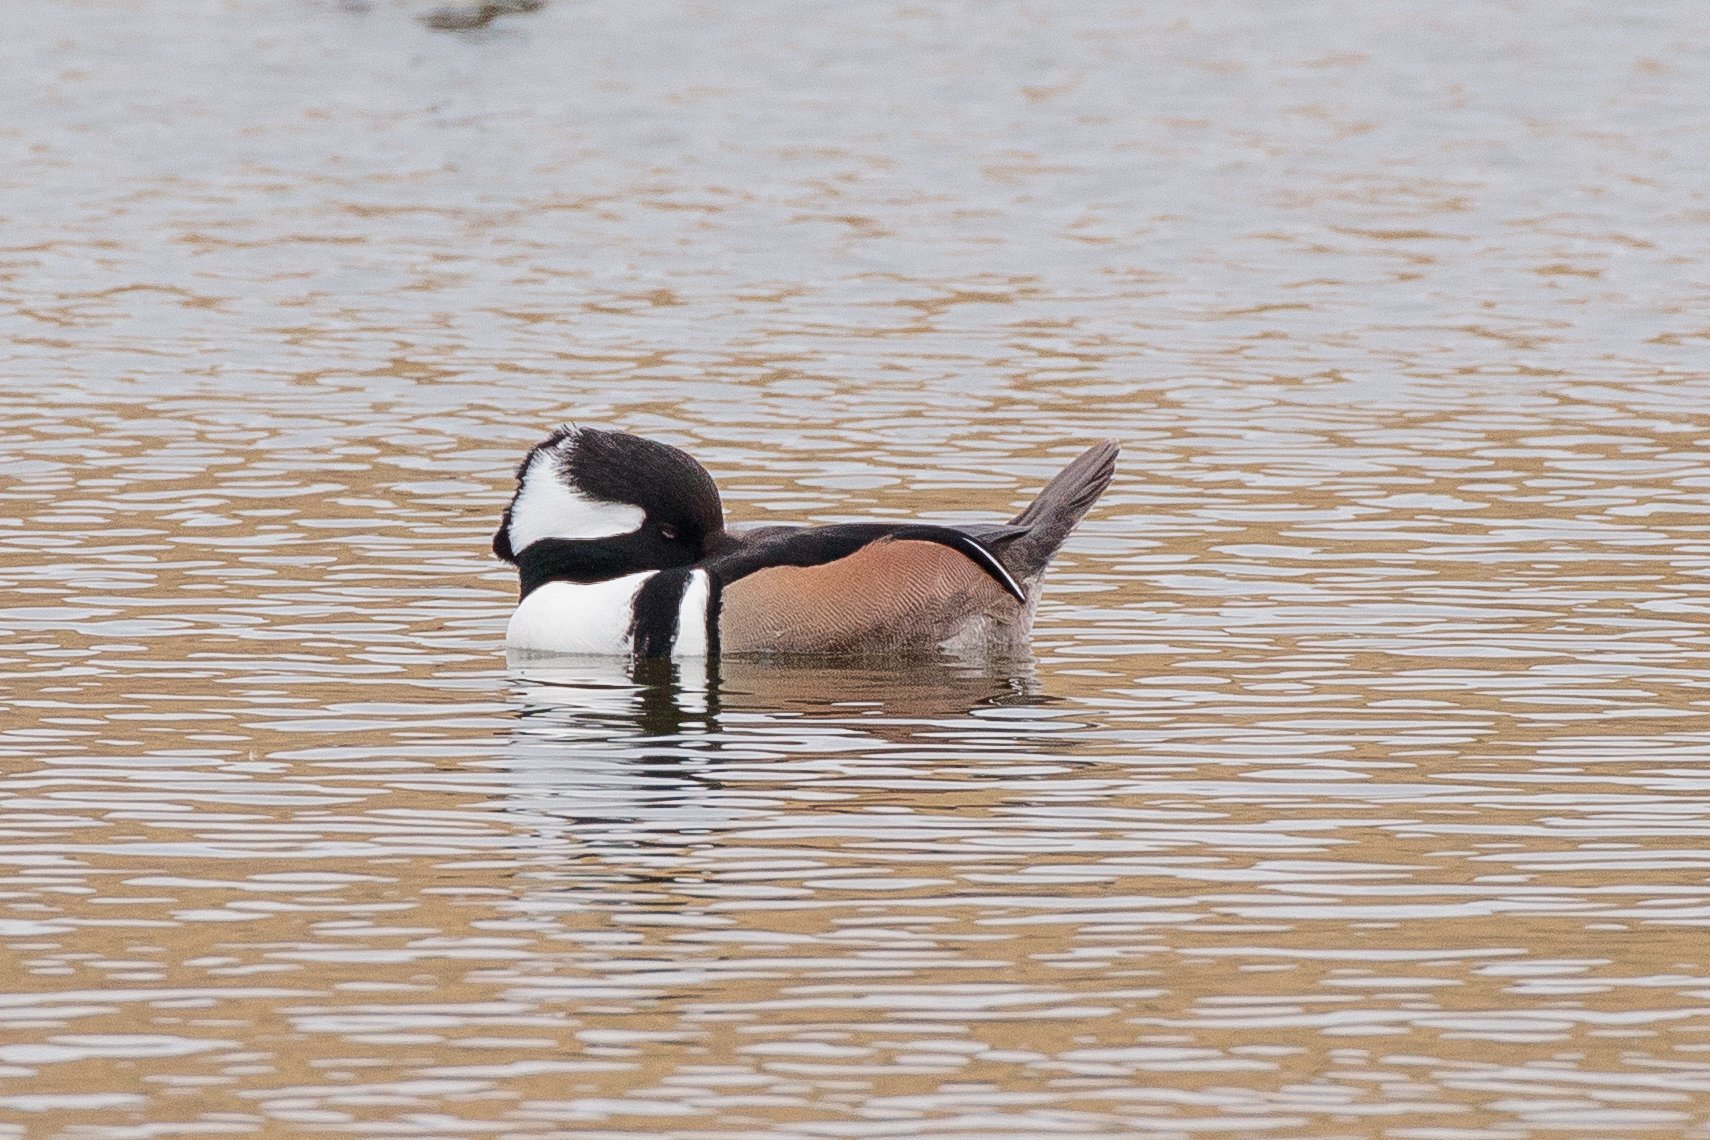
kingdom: Animalia
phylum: Chordata
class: Aves
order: Anseriformes
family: Anatidae
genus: Lophodytes
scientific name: Lophodytes cucullatus
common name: Hooded merganser
